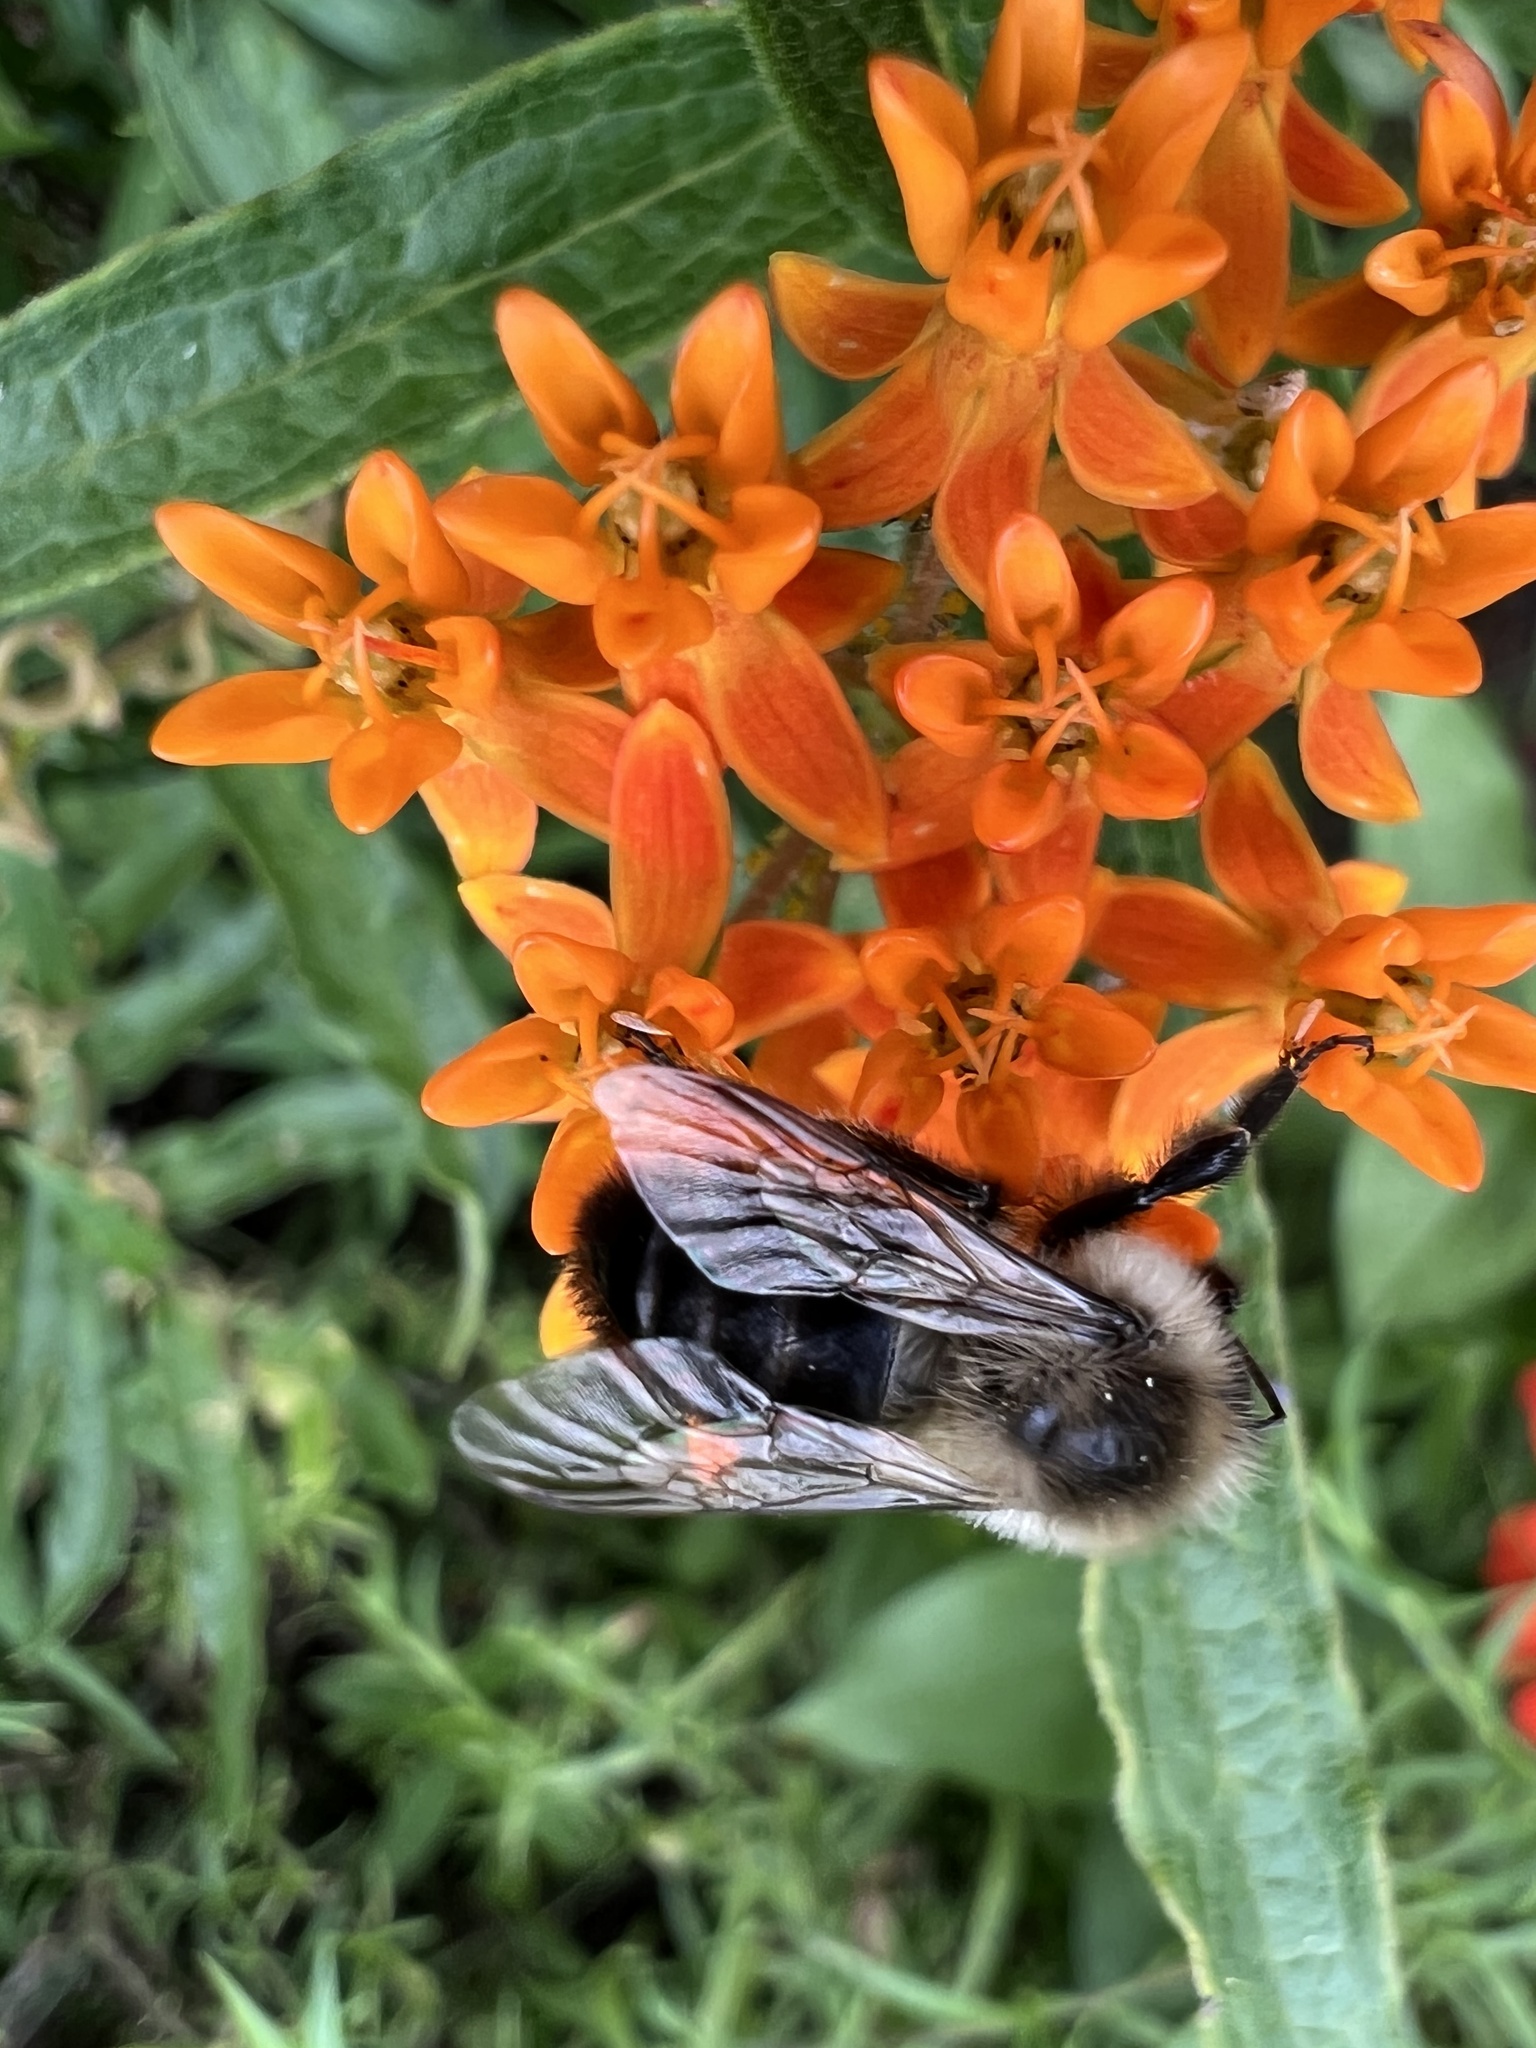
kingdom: Animalia
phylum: Arthropoda
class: Insecta
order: Hymenoptera
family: Apidae
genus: Bombus
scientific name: Bombus impatiens
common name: Common eastern bumble bee
